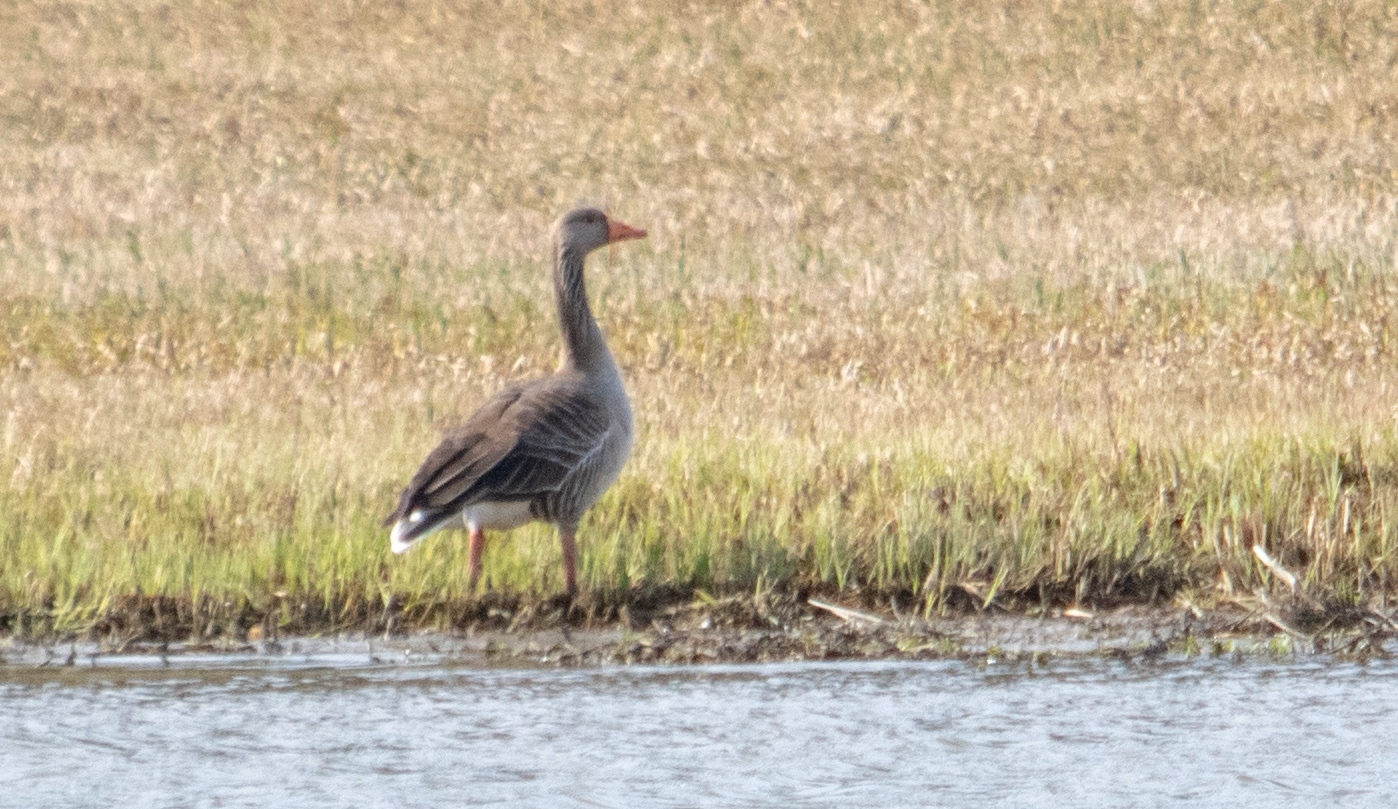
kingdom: Animalia
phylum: Chordata
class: Aves
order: Anseriformes
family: Anatidae
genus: Anser
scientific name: Anser anser
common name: Greylag goose
